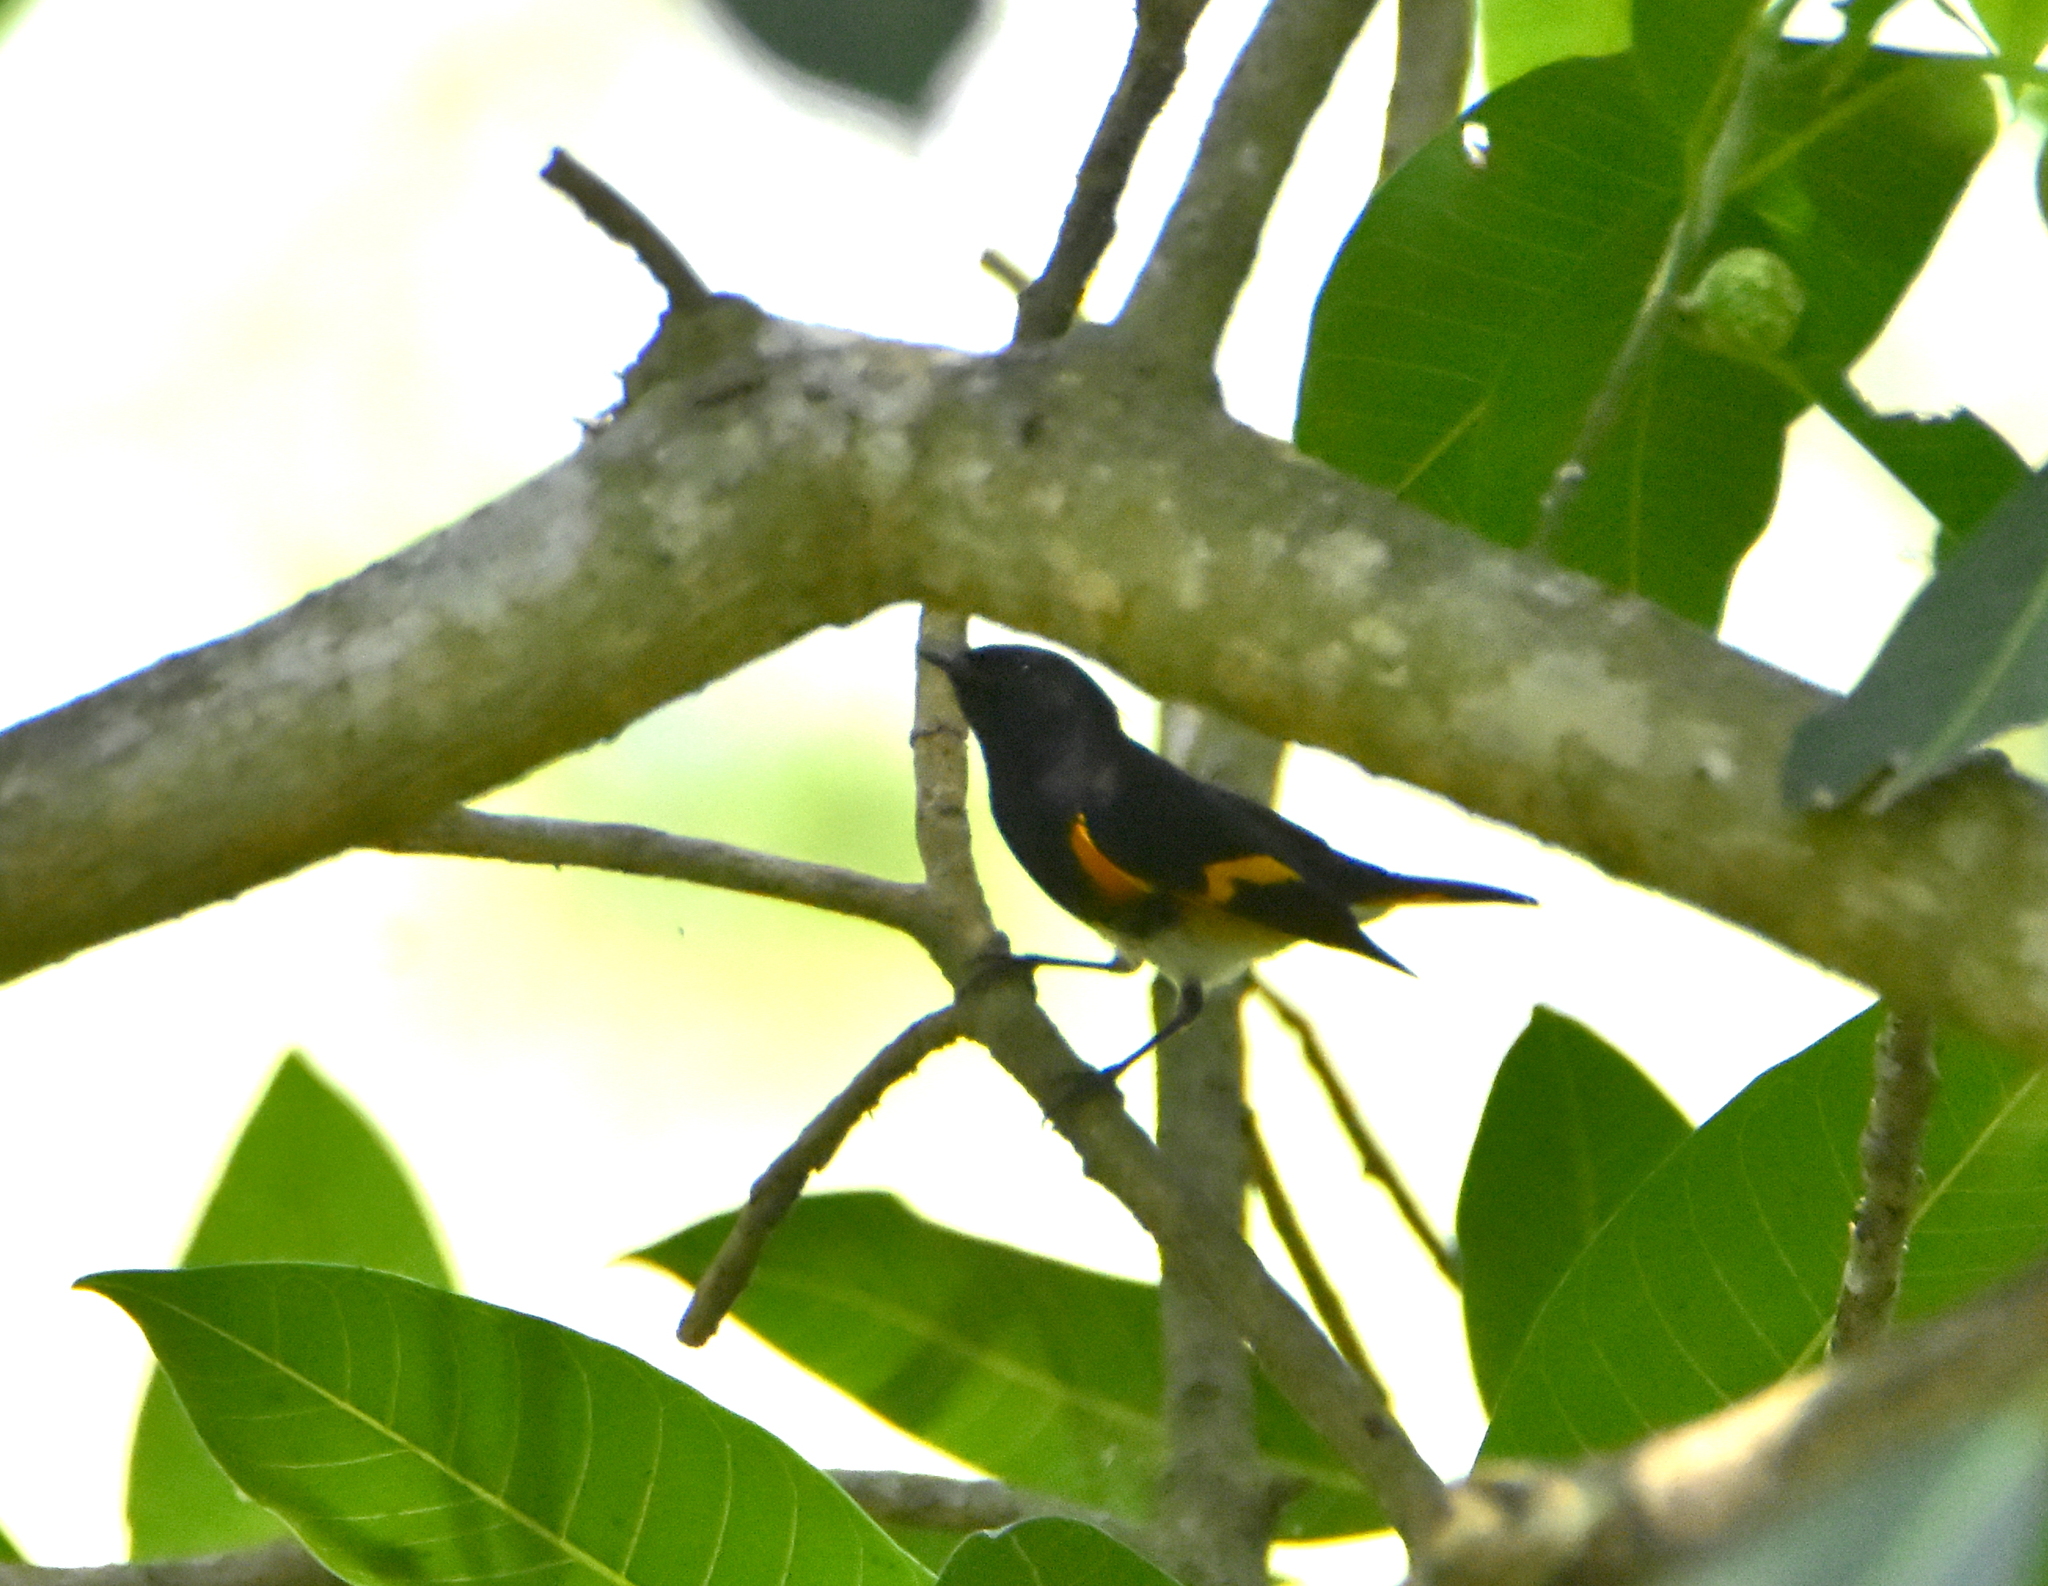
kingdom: Animalia
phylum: Chordata
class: Aves
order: Passeriformes
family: Parulidae
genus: Setophaga
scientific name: Setophaga ruticilla
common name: American redstart
